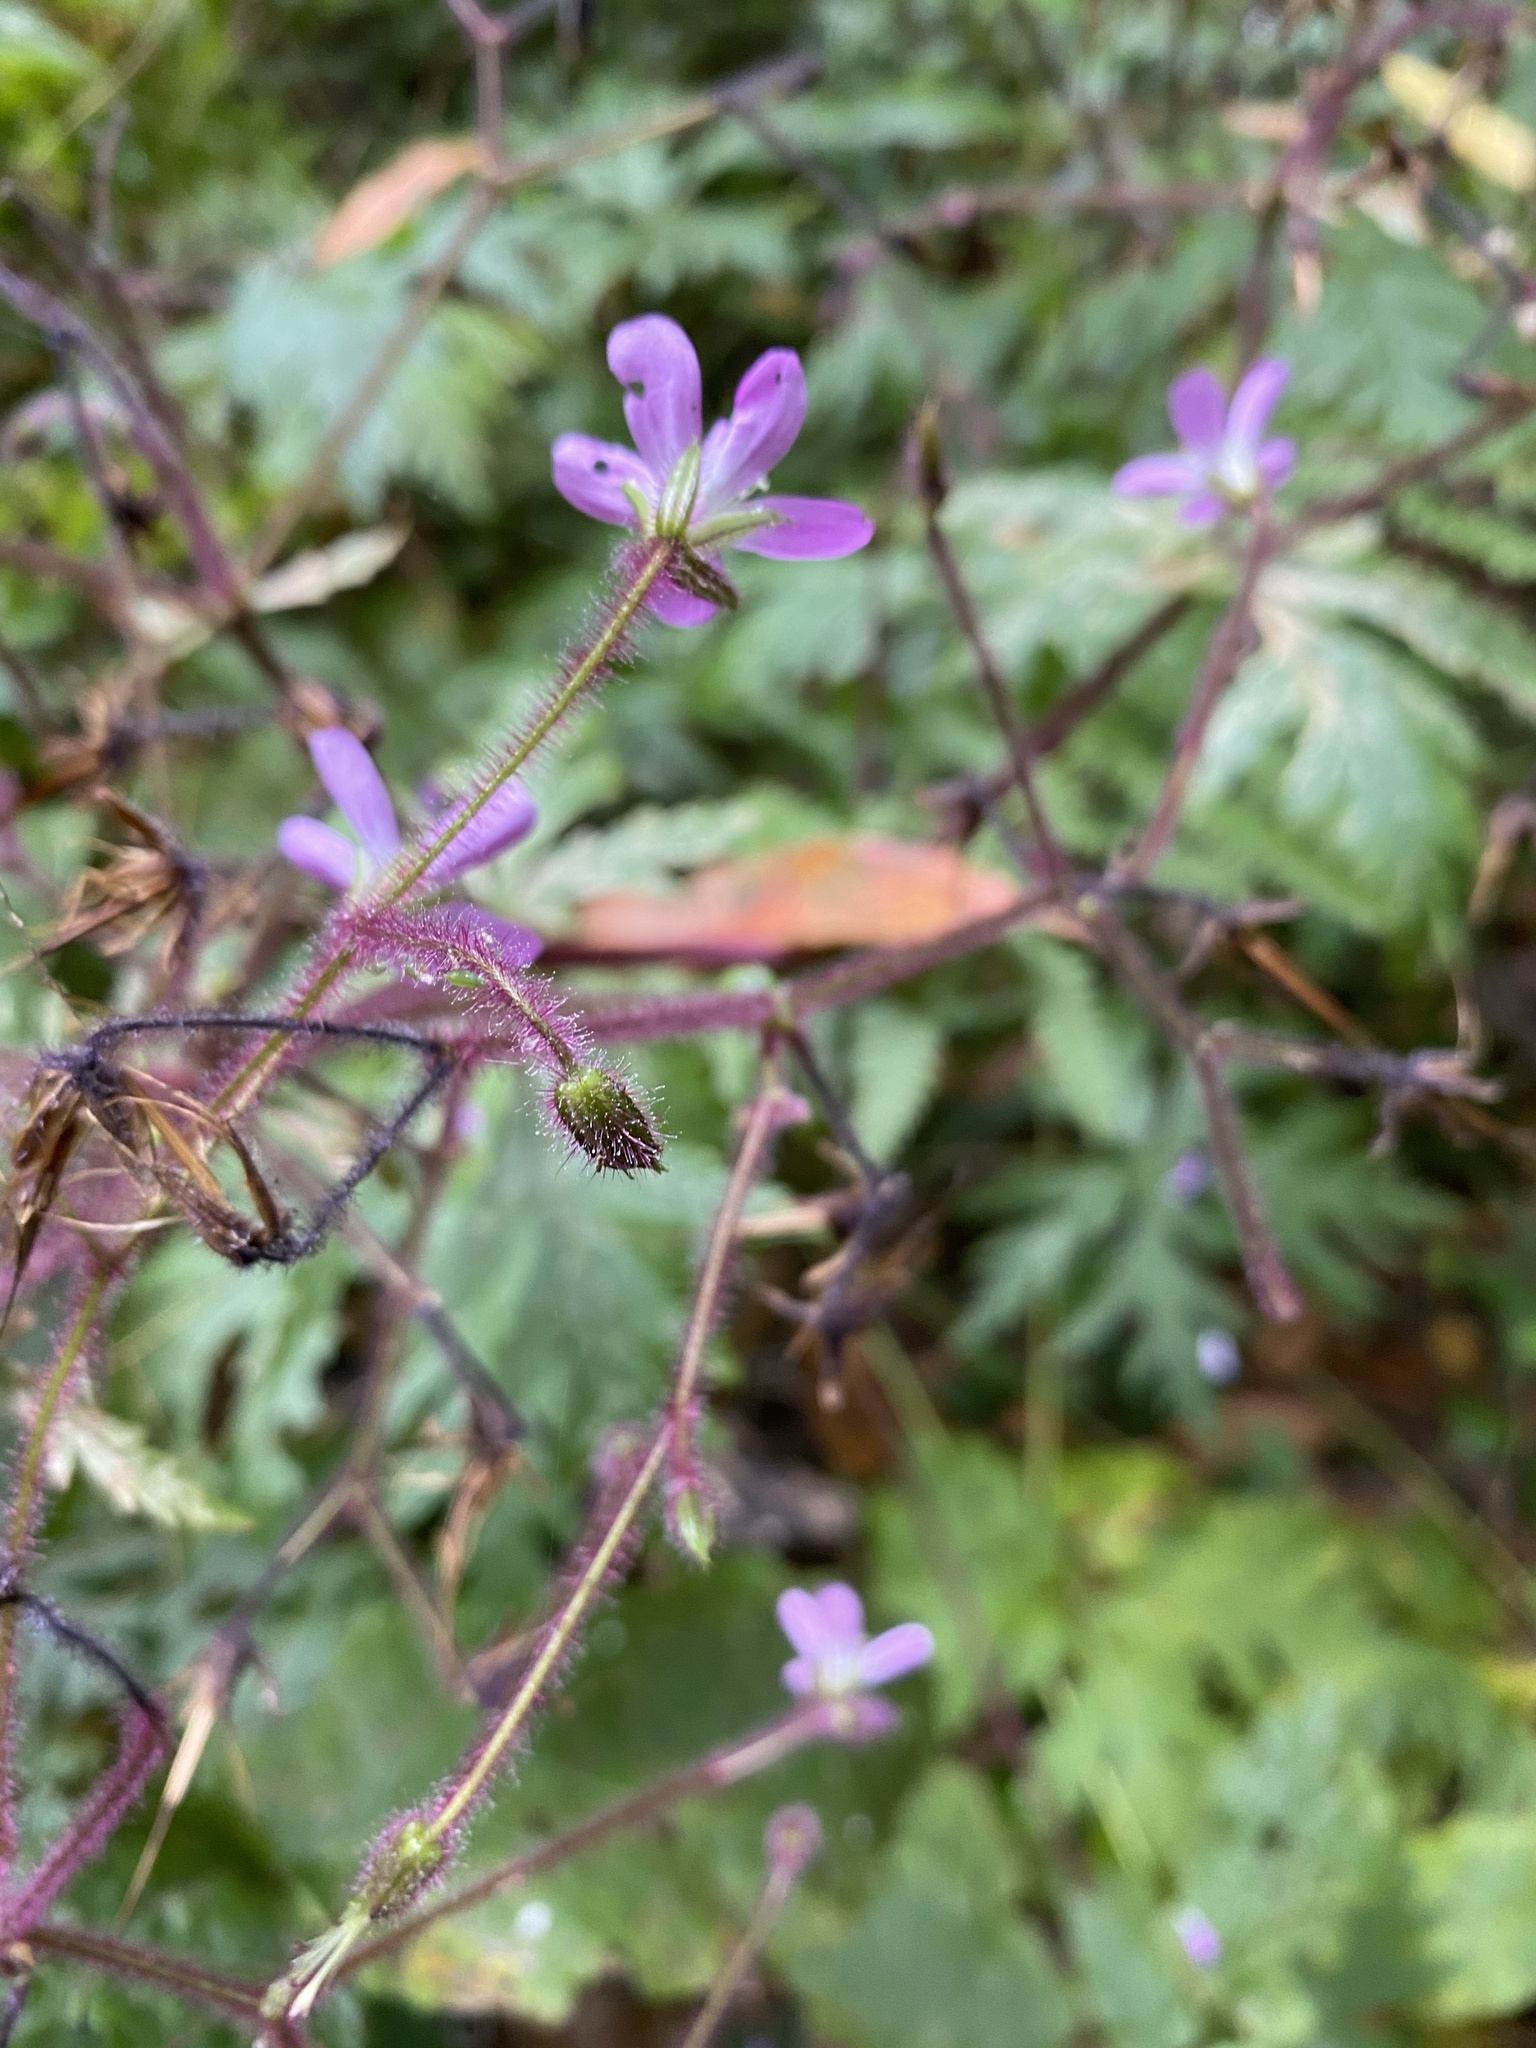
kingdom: Plantae
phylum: Tracheophyta
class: Magnoliopsida
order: Geraniales
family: Geraniaceae
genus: Geranium
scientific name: Geranium reuteri
